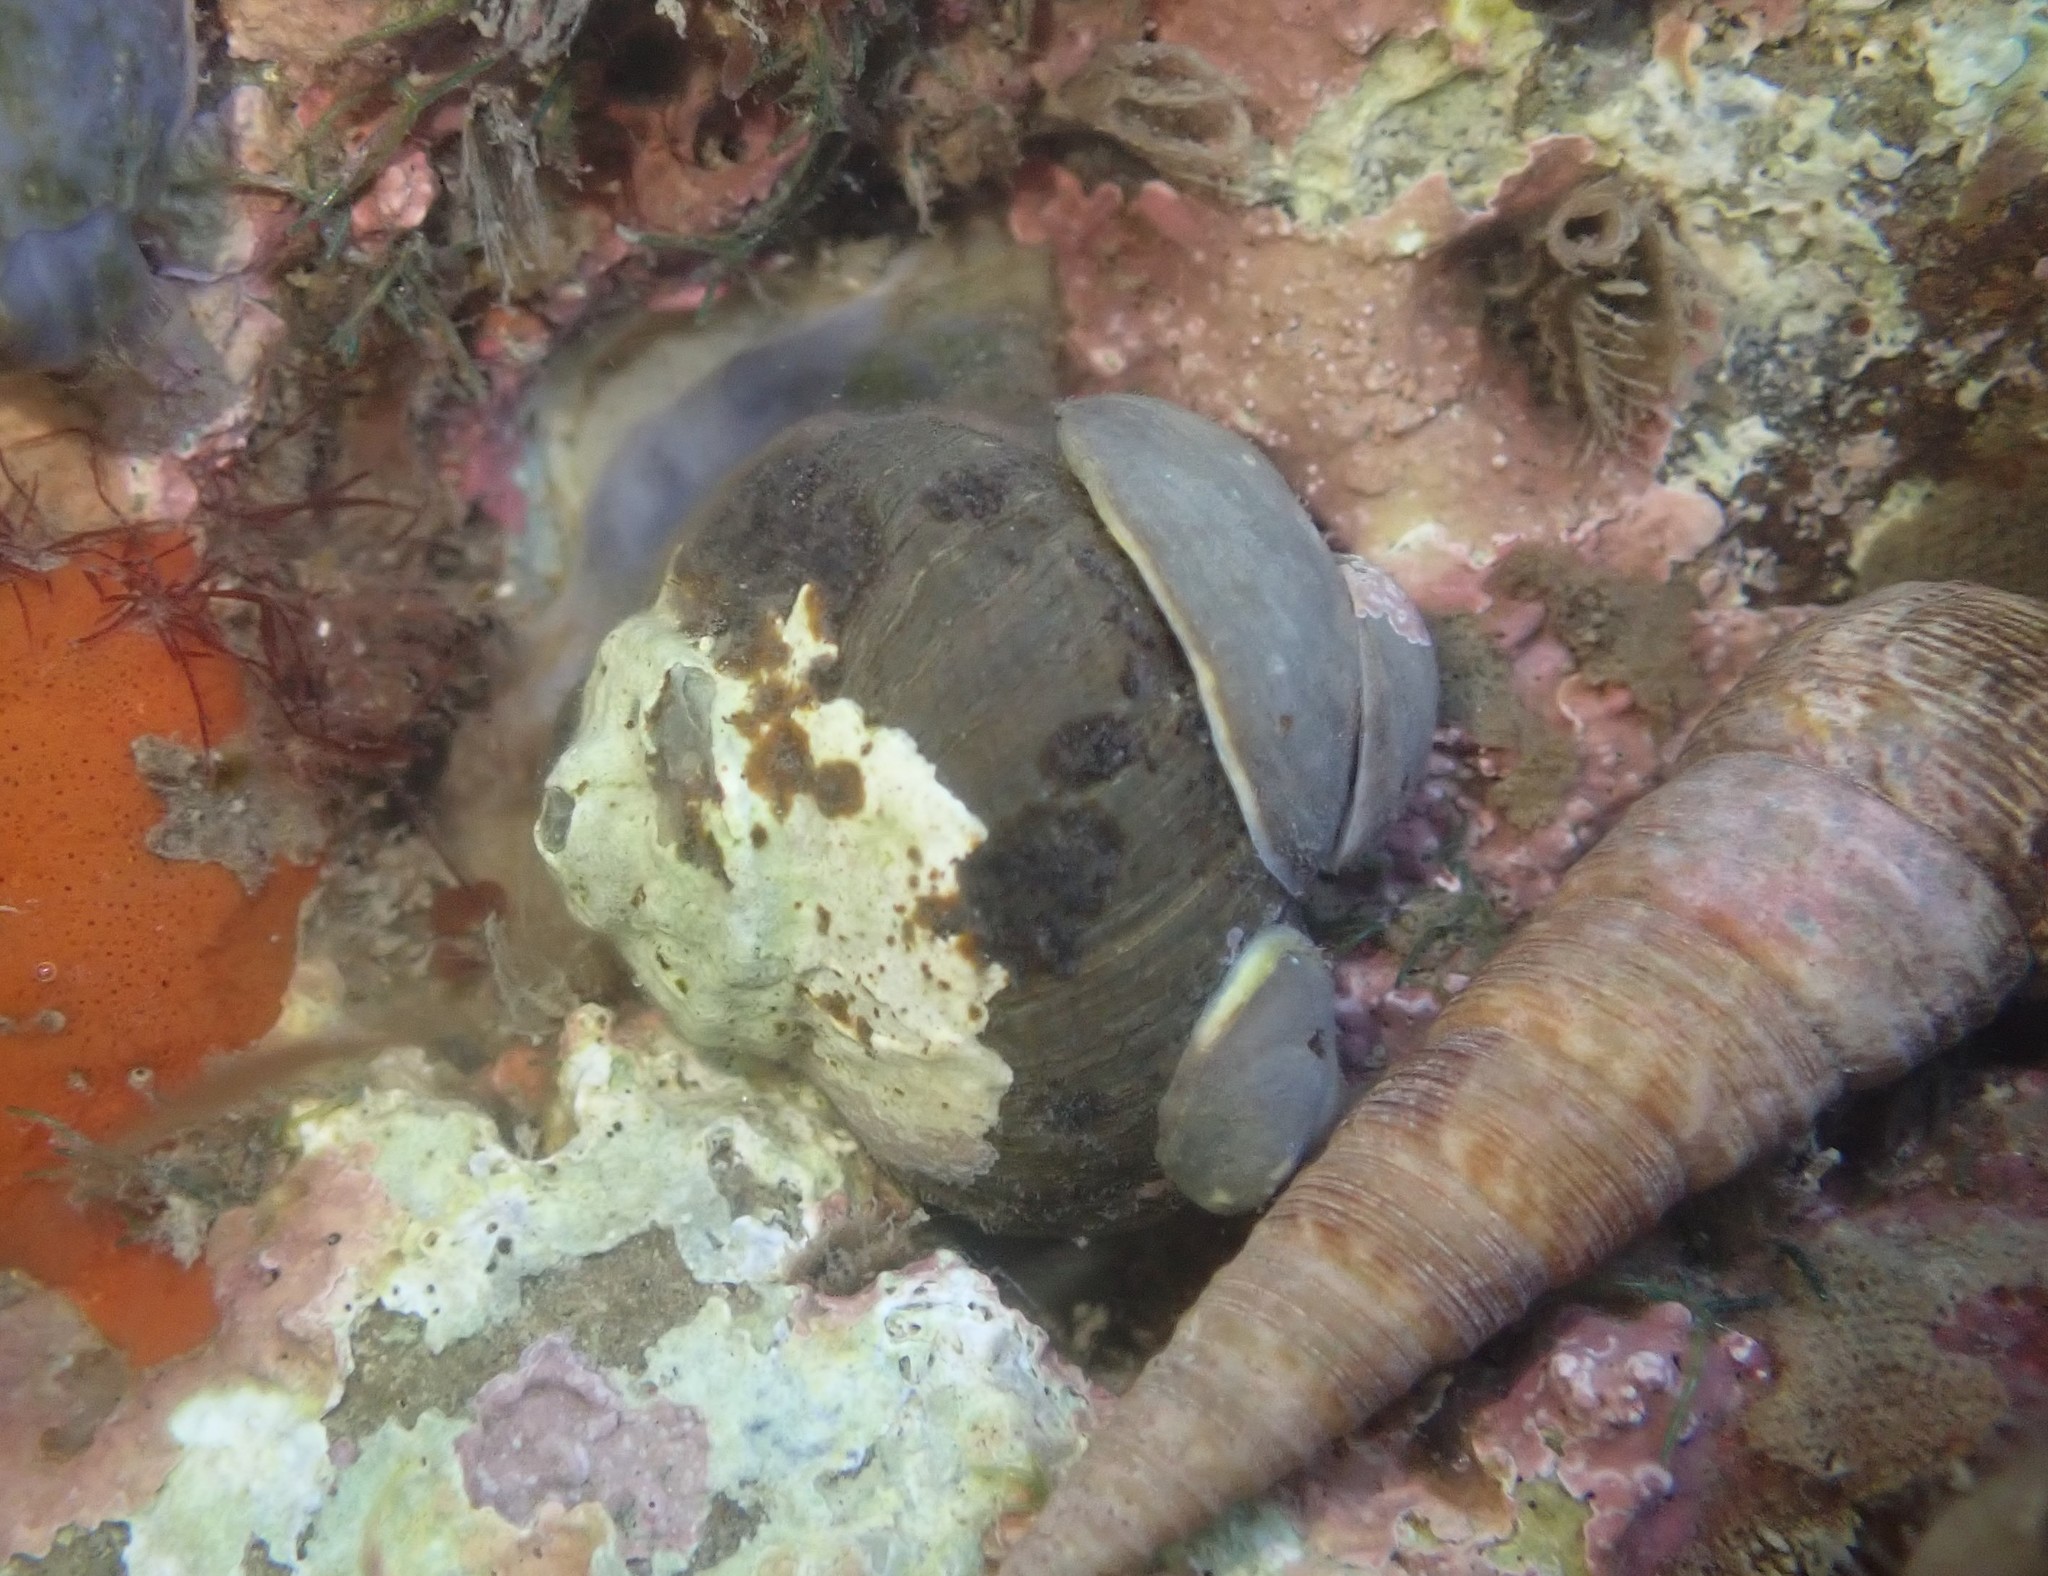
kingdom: Animalia
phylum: Mollusca
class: Gastropoda
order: Trochida
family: Turbinidae
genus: Lunella
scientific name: Lunella smaragda
